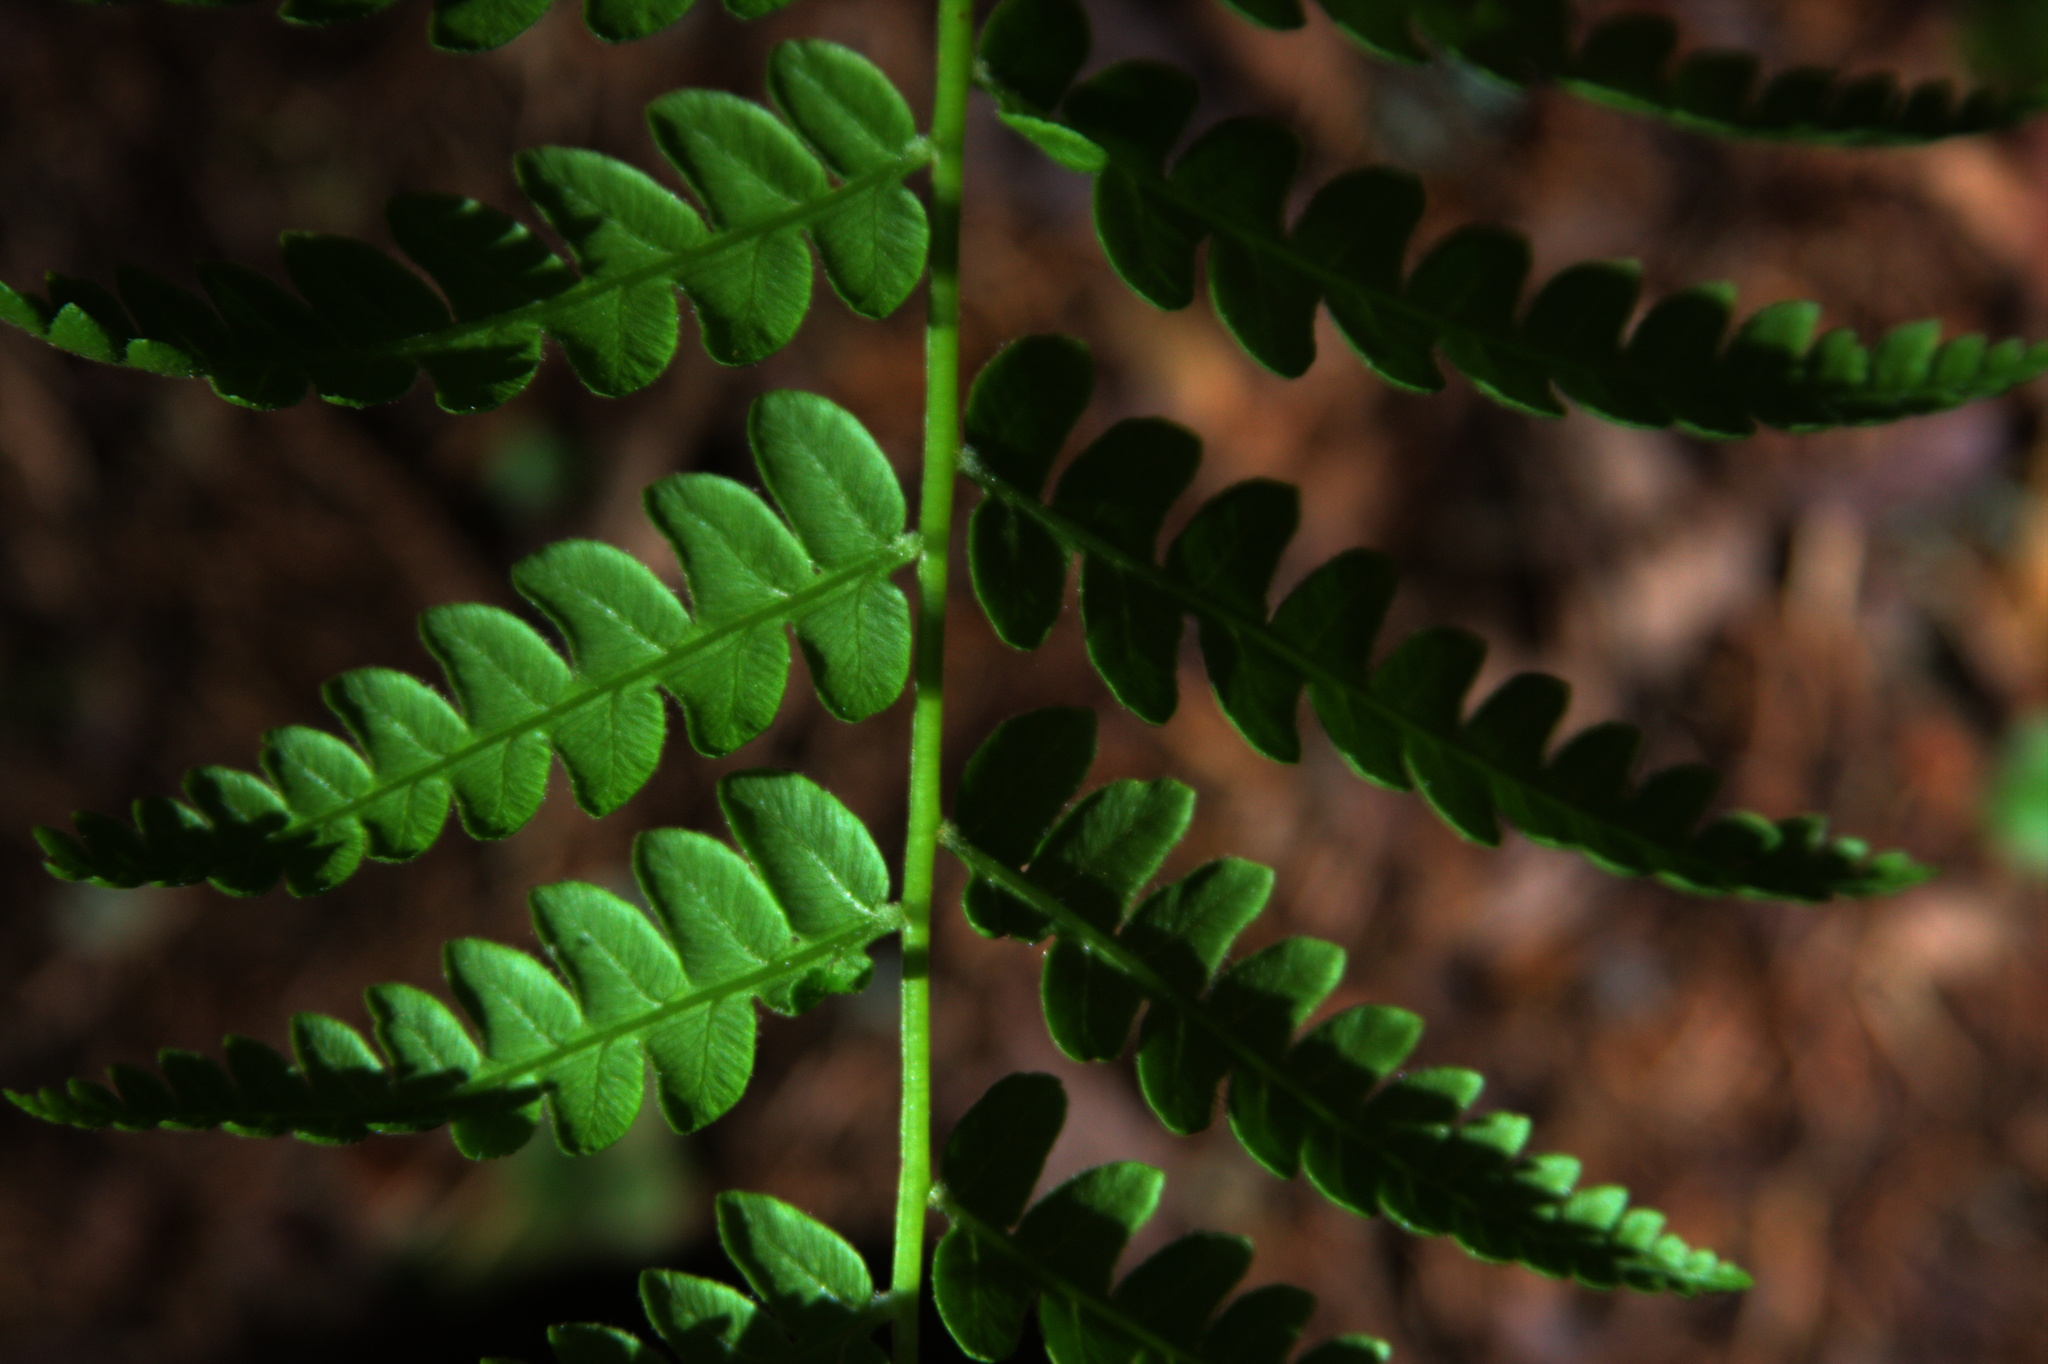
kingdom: Plantae
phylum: Tracheophyta
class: Polypodiopsida
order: Osmundales
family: Osmundaceae
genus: Osmundastrum
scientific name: Osmundastrum cinnamomeum
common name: Cinnamon fern
